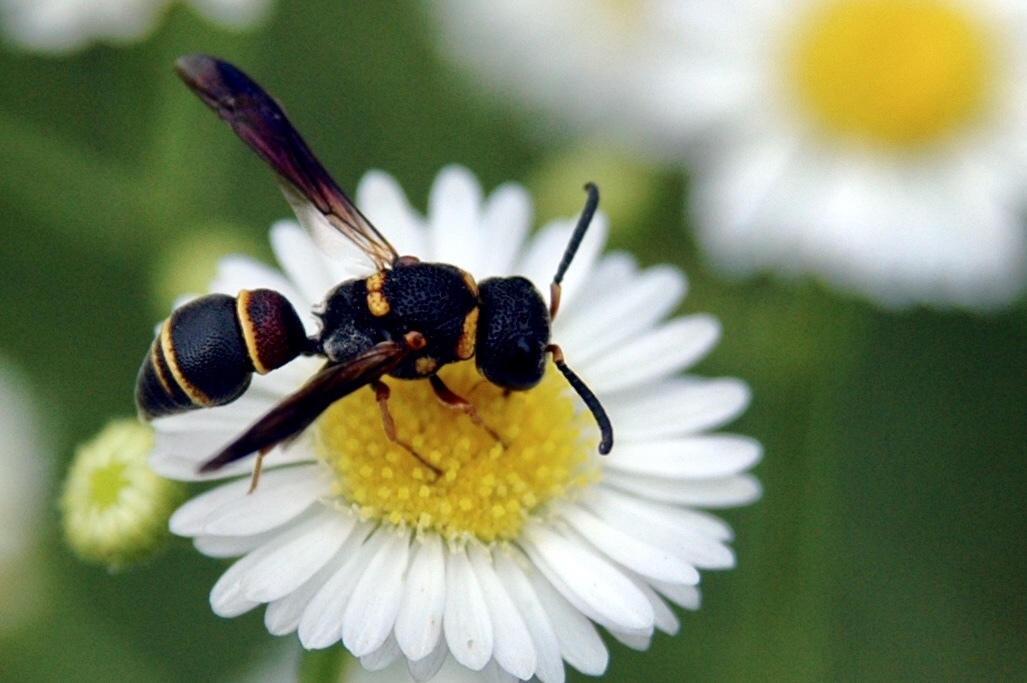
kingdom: Animalia
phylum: Arthropoda
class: Insecta
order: Hymenoptera
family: Eumenidae
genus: Cyrtolabulus
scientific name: Cyrtolabulus mutinensis
